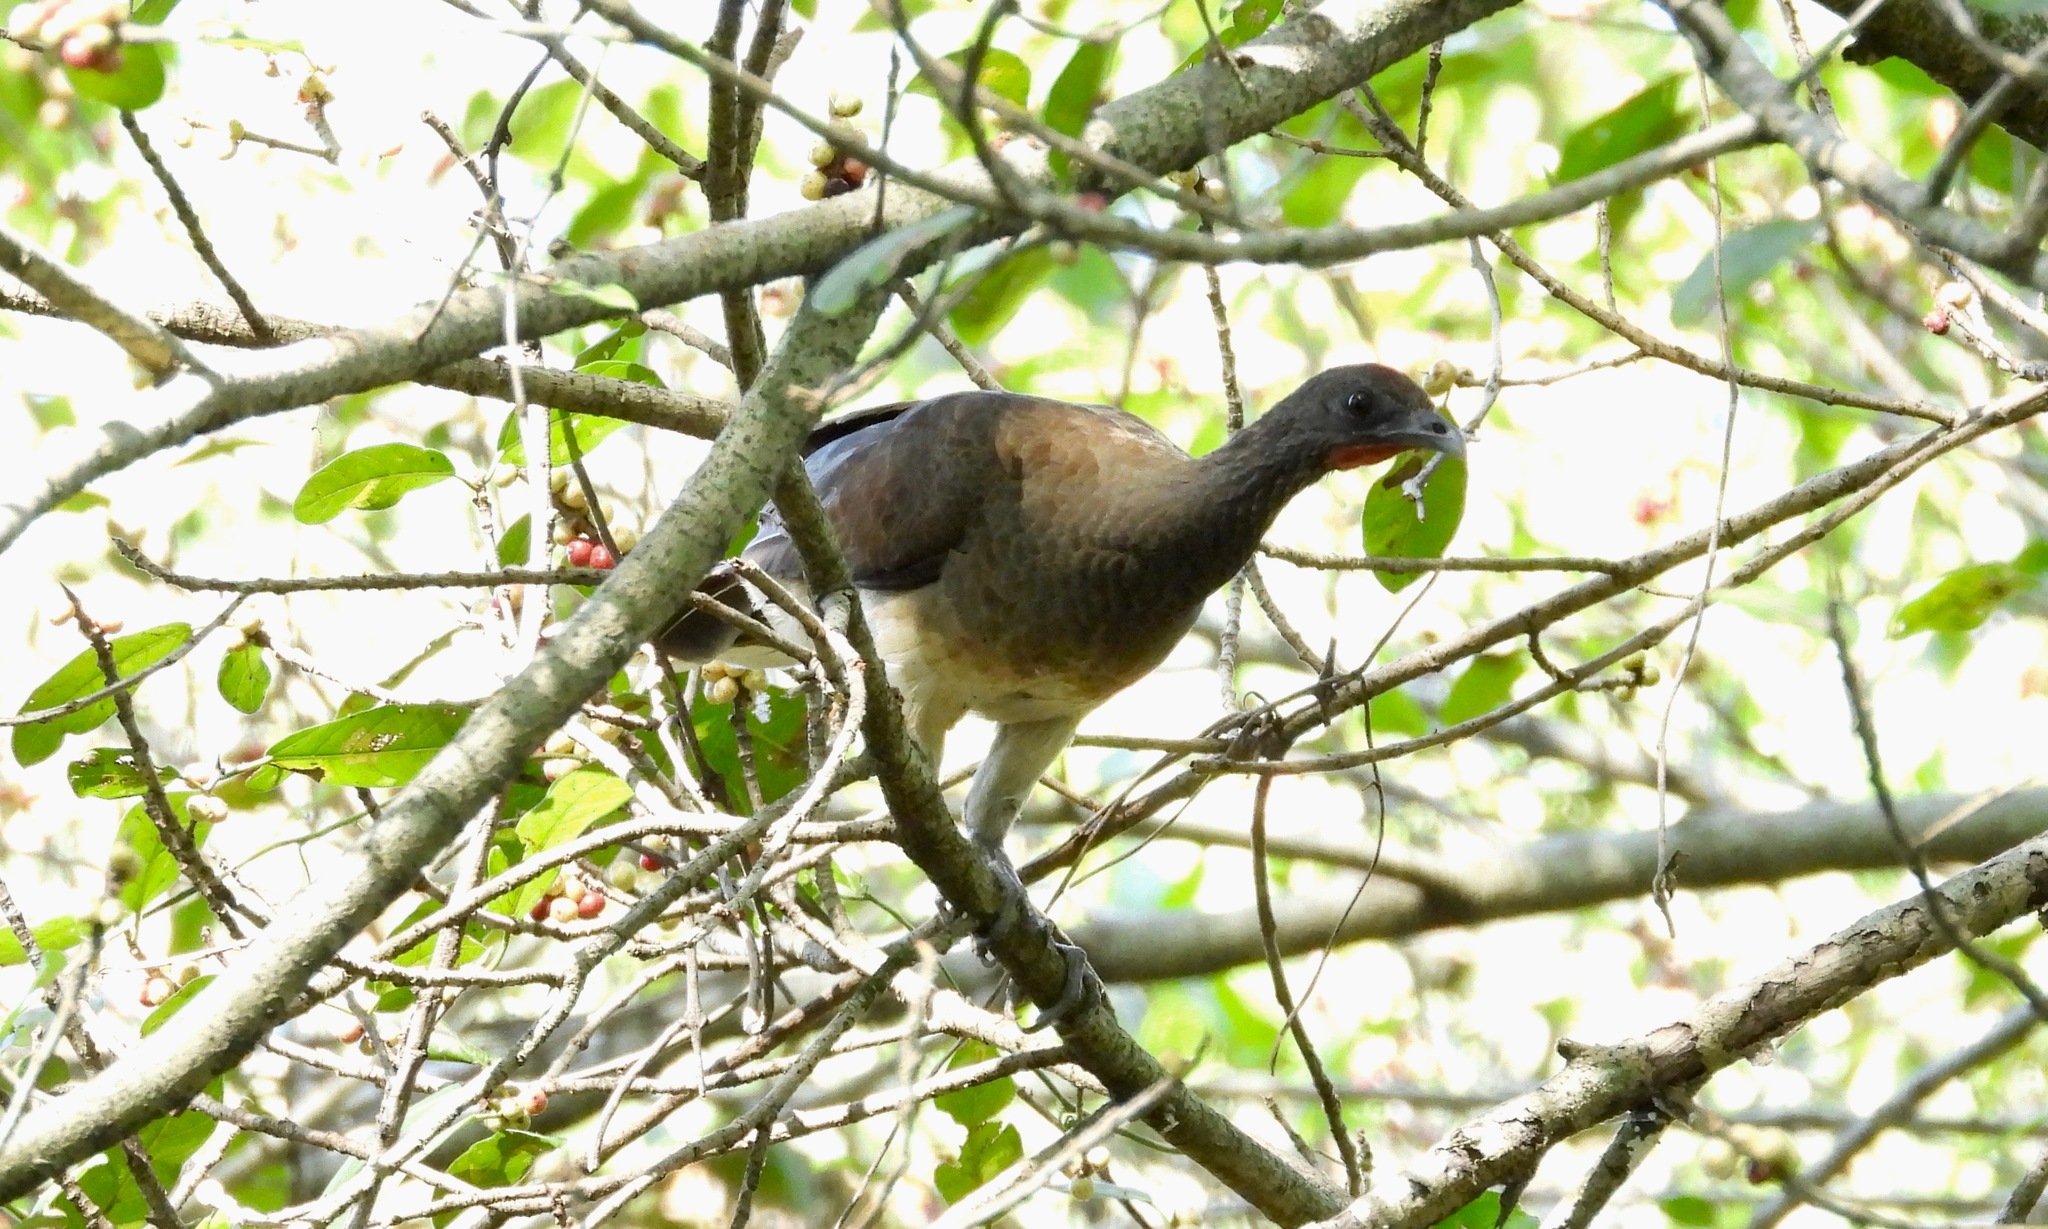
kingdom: Animalia
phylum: Chordata
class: Aves
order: Galliformes
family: Cracidae
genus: Ortalis
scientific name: Ortalis leucogastra
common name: White-bellied chachalaca
